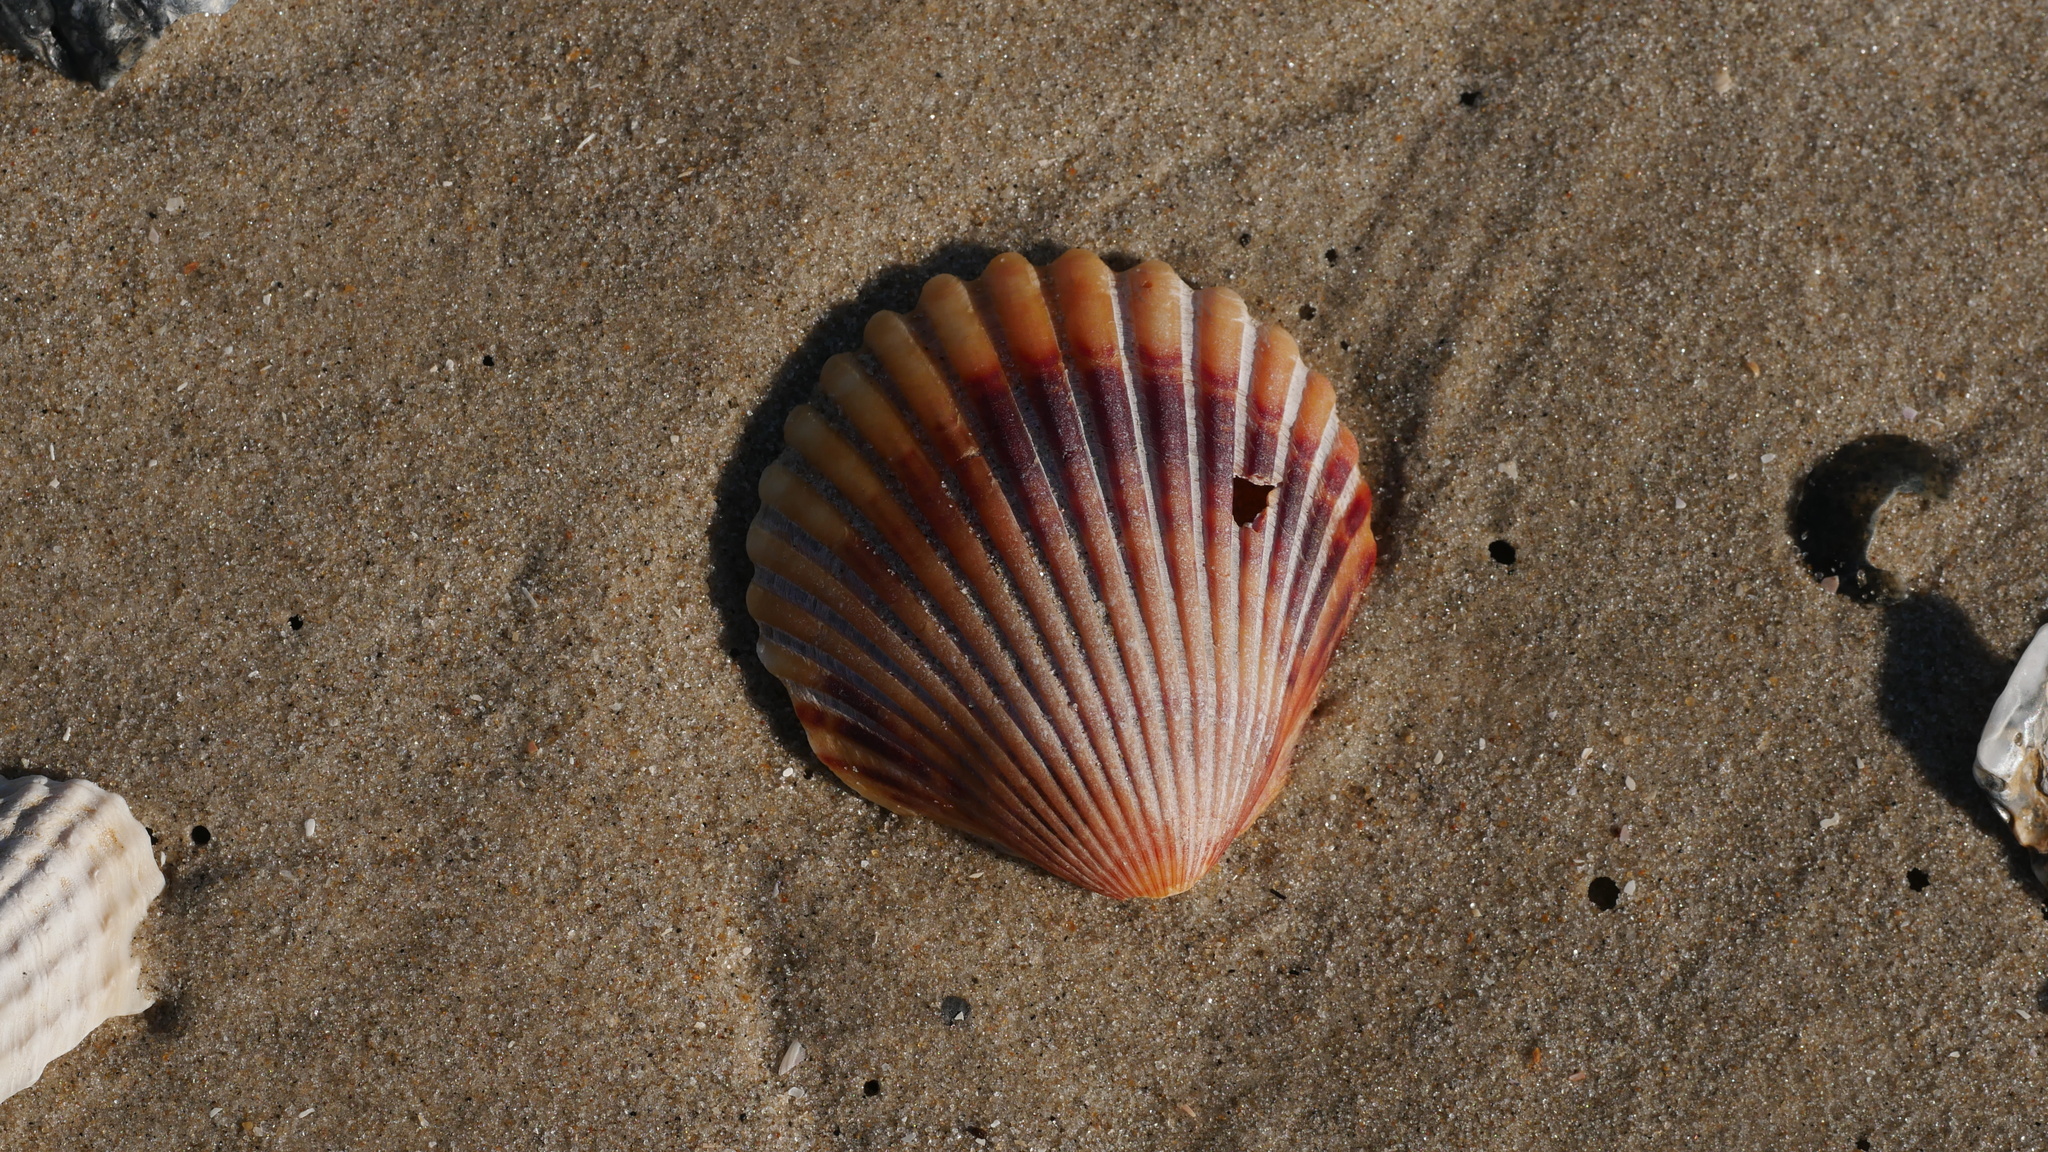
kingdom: Animalia
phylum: Mollusca
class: Bivalvia
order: Pectinida
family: Pectinidae
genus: Argopecten
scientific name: Argopecten irradians
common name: Atlantic bay scallop
